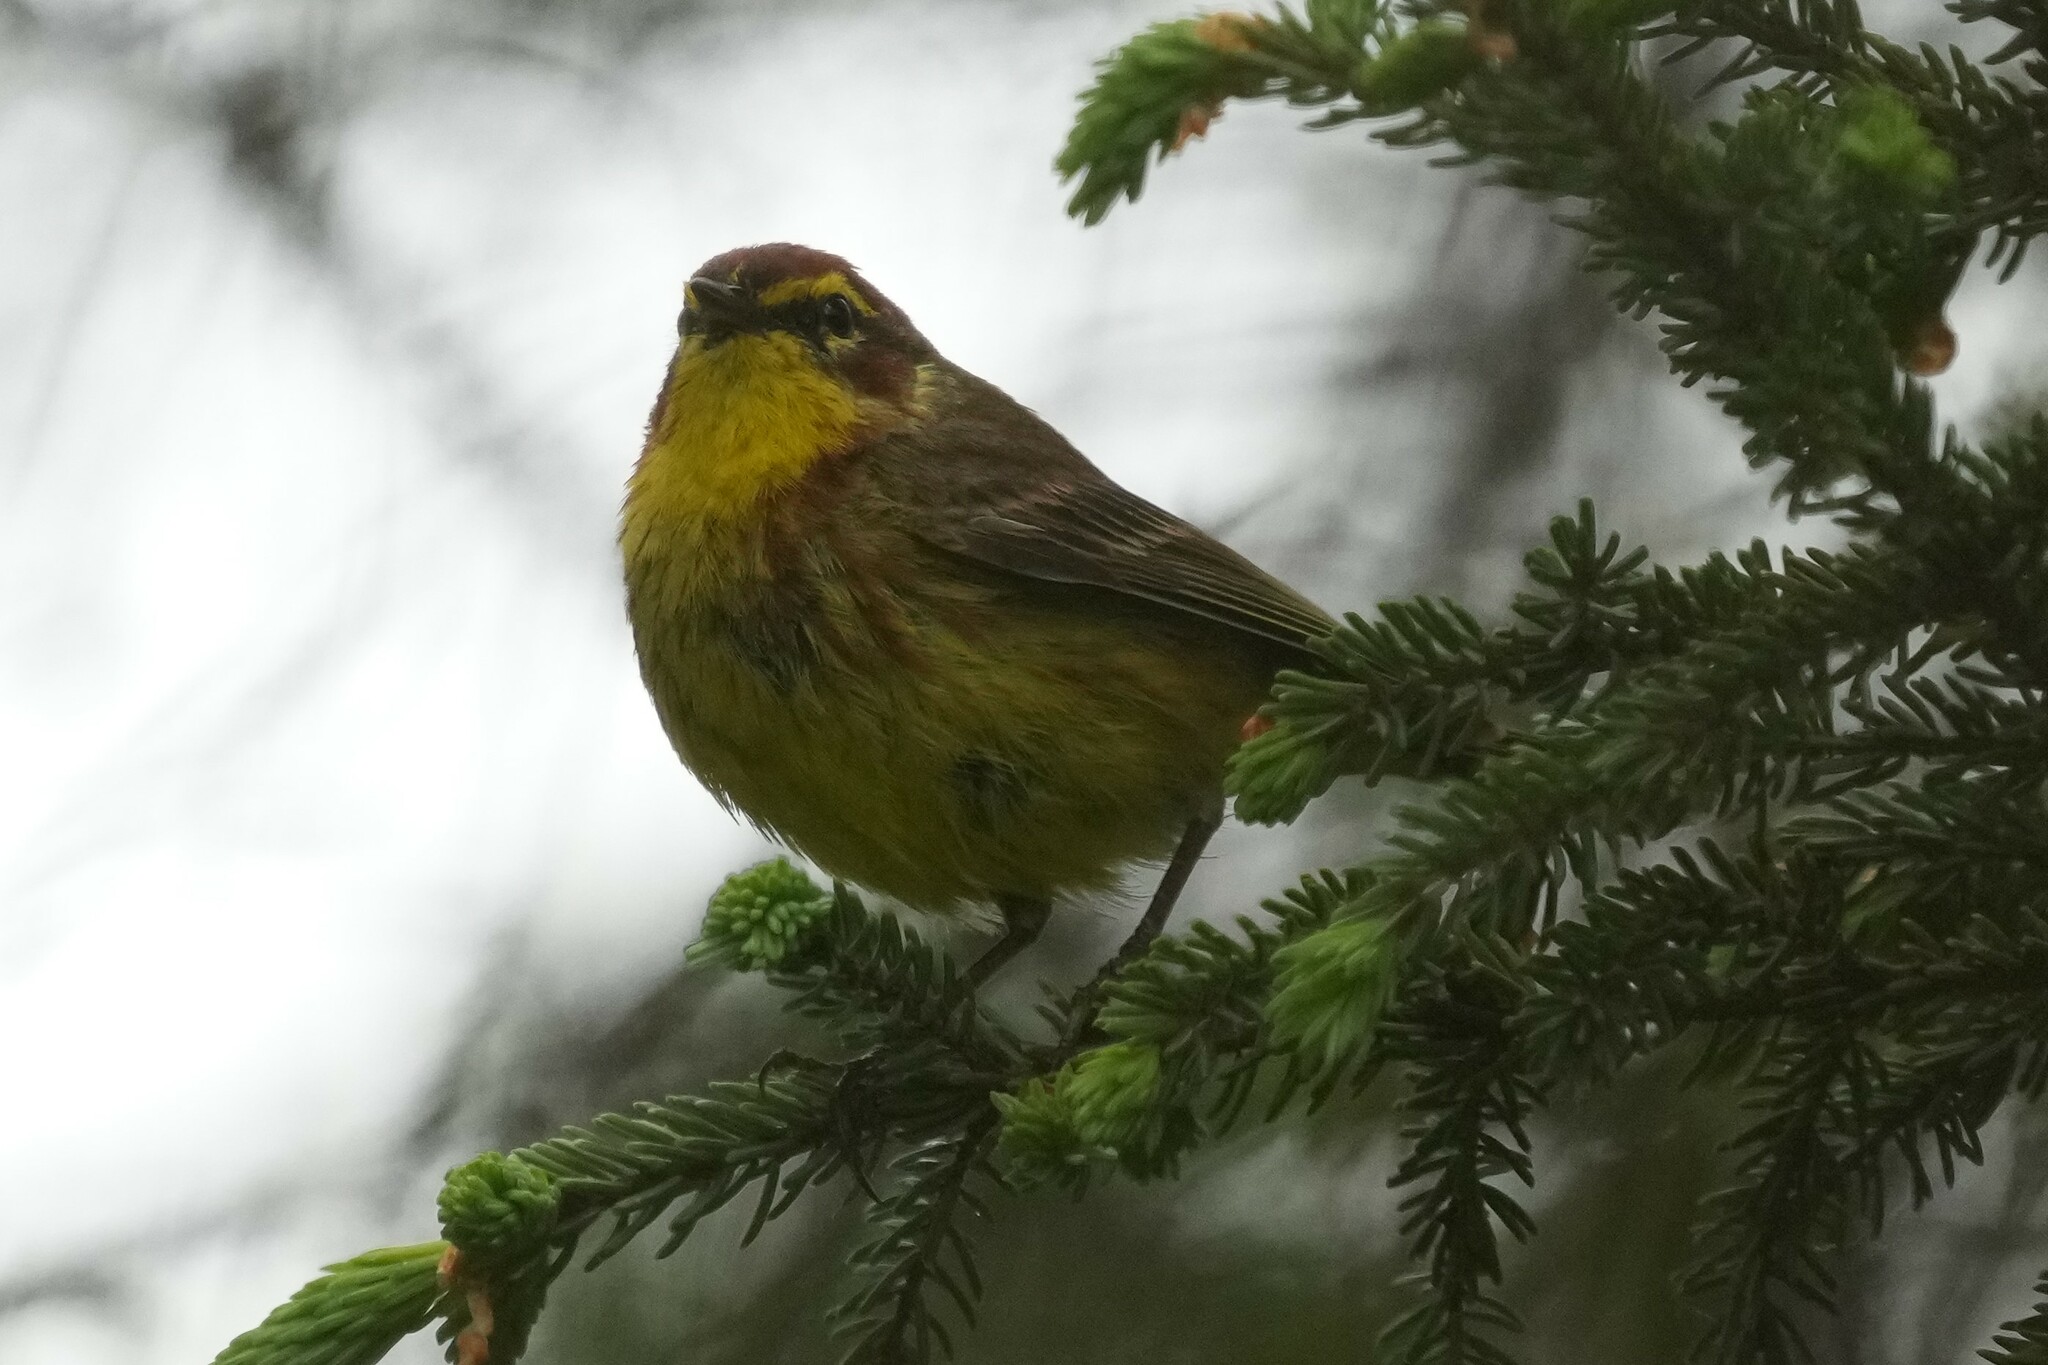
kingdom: Animalia
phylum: Chordata
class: Aves
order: Passeriformes
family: Parulidae
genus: Setophaga
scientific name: Setophaga palmarum
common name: Palm warbler
